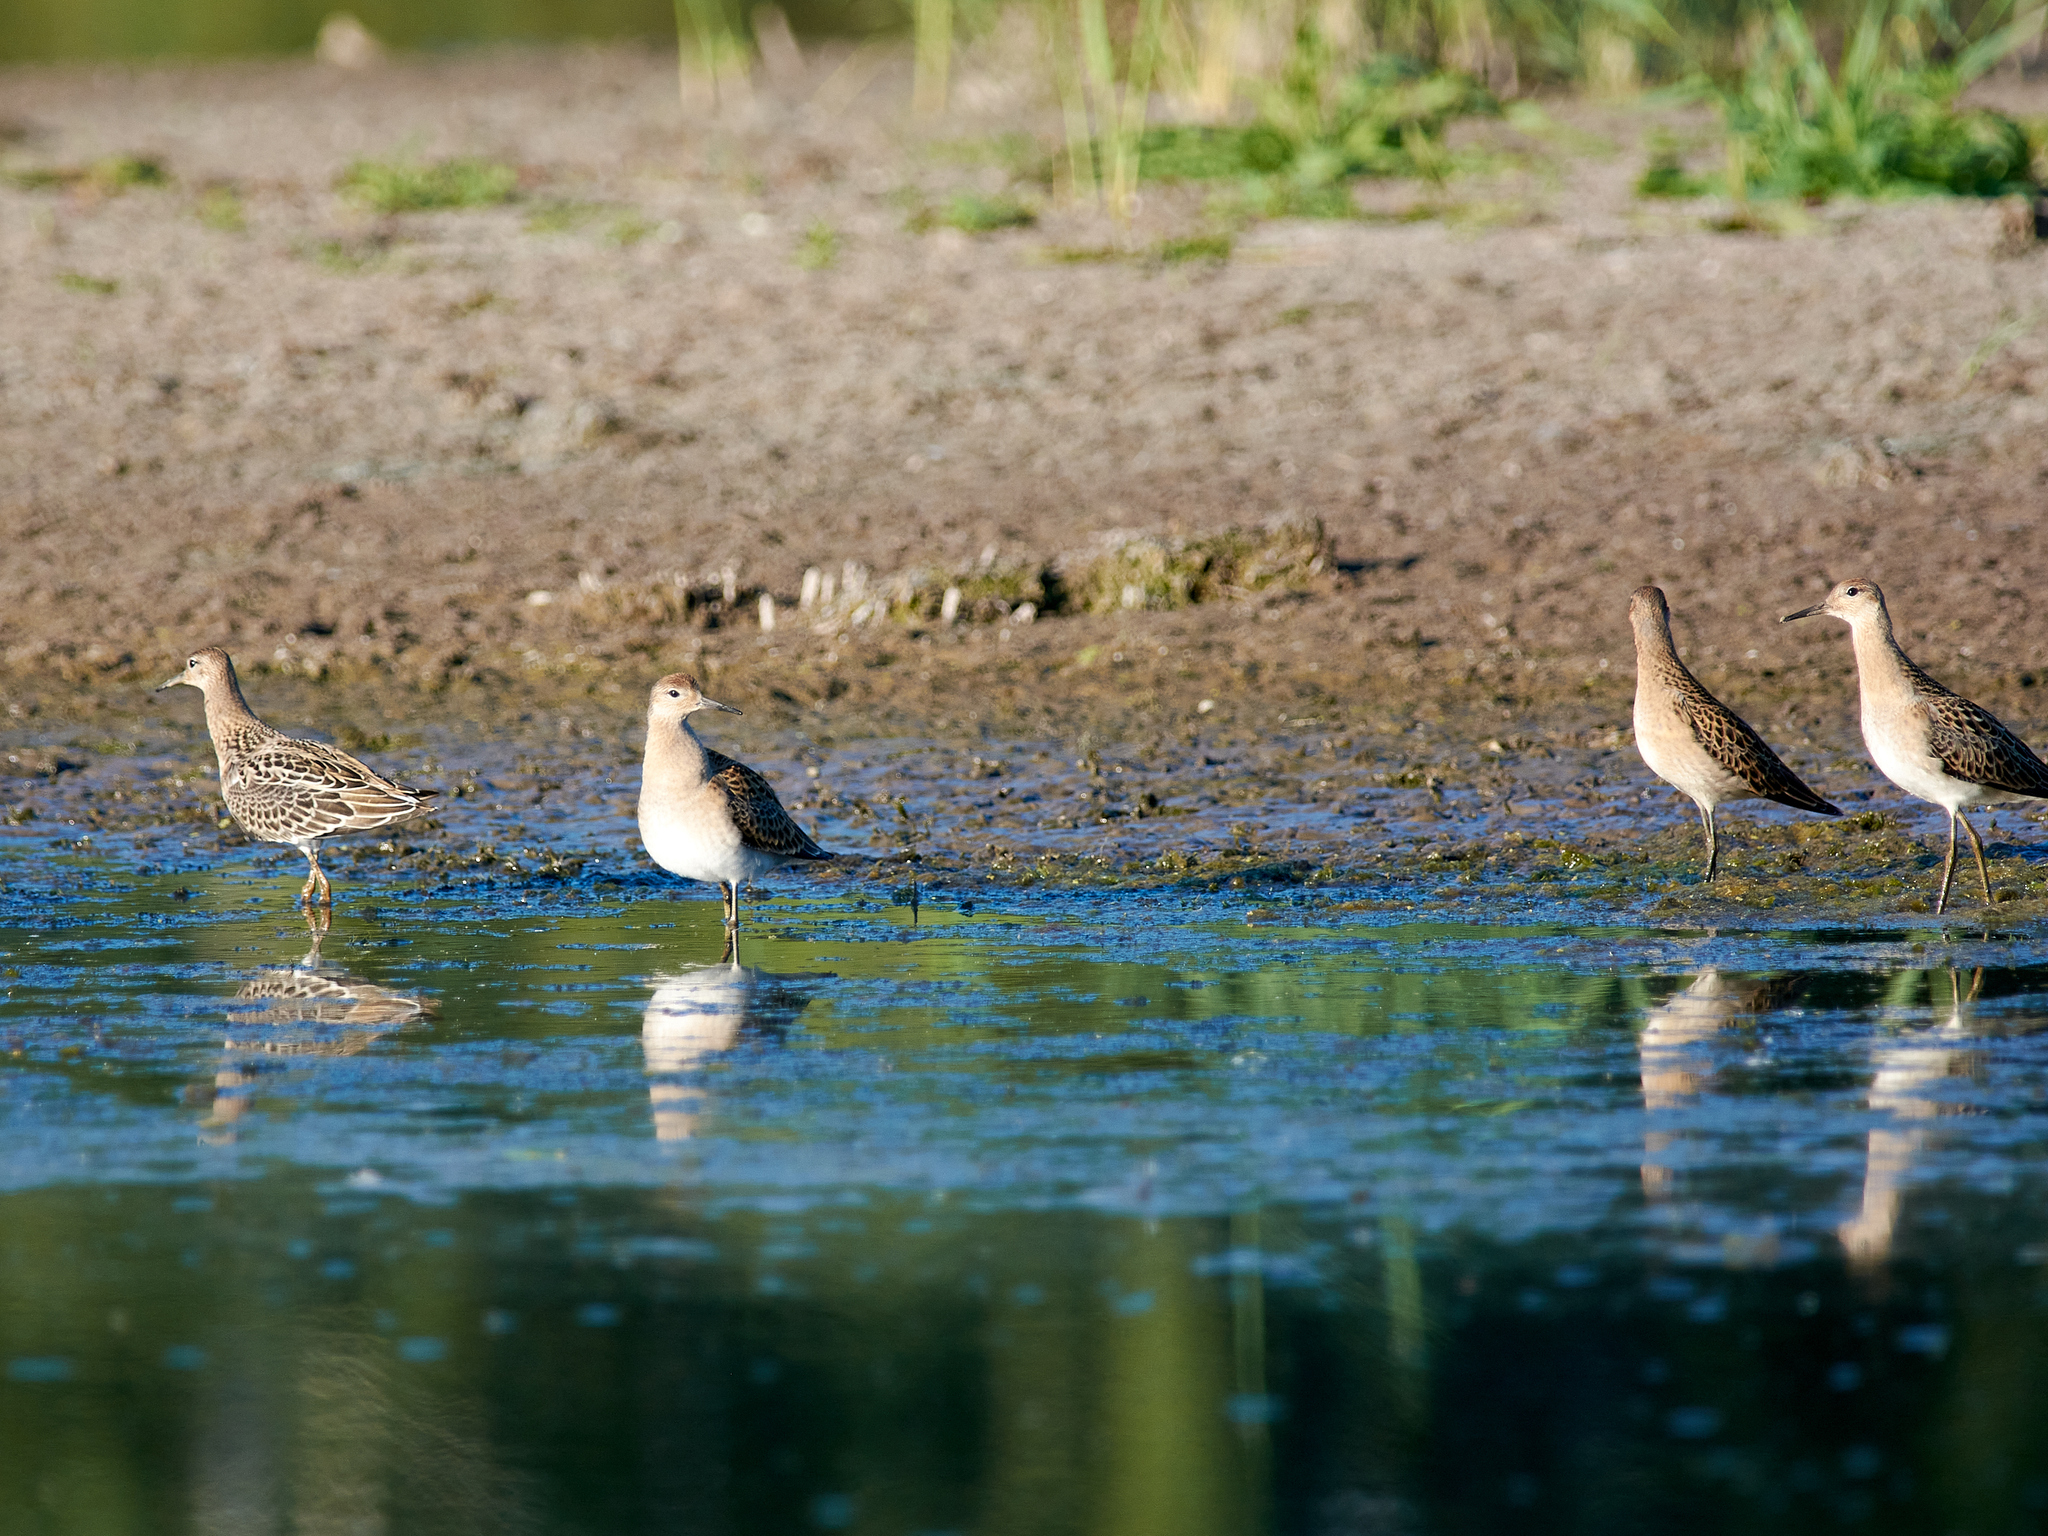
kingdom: Animalia
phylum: Chordata
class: Aves
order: Charadriiformes
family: Scolopacidae
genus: Calidris
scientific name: Calidris pugnax
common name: Ruff
